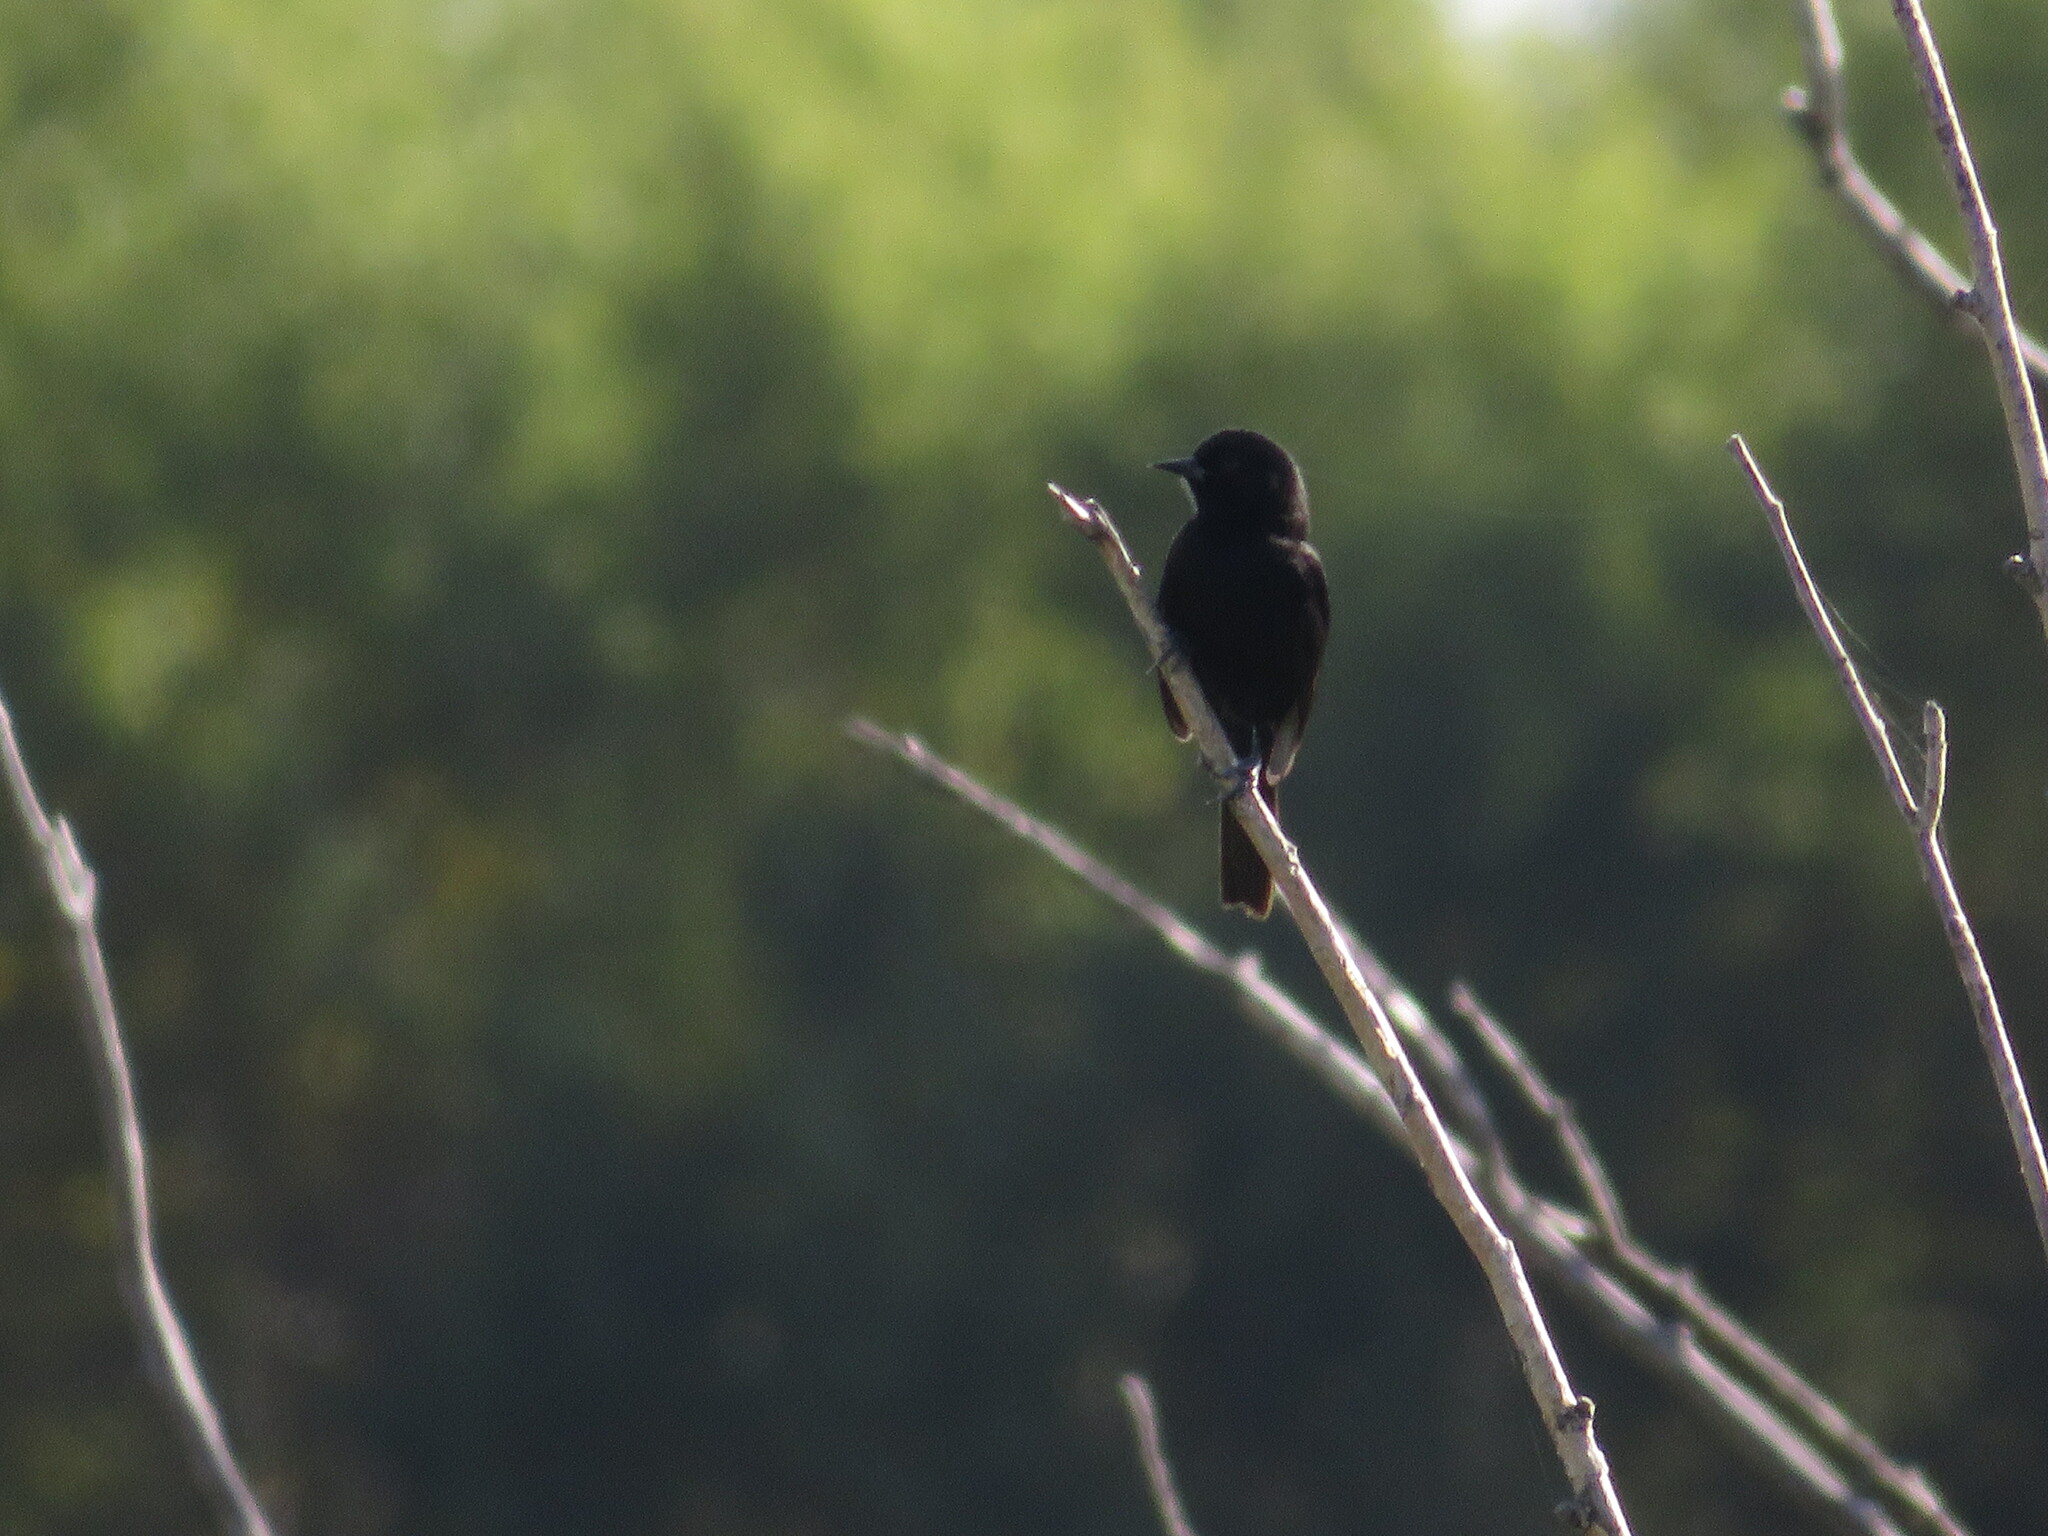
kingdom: Animalia
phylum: Chordata
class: Aves
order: Passeriformes
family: Icteridae
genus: Icterus
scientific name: Icterus cayanensis
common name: Epaulet oriole
